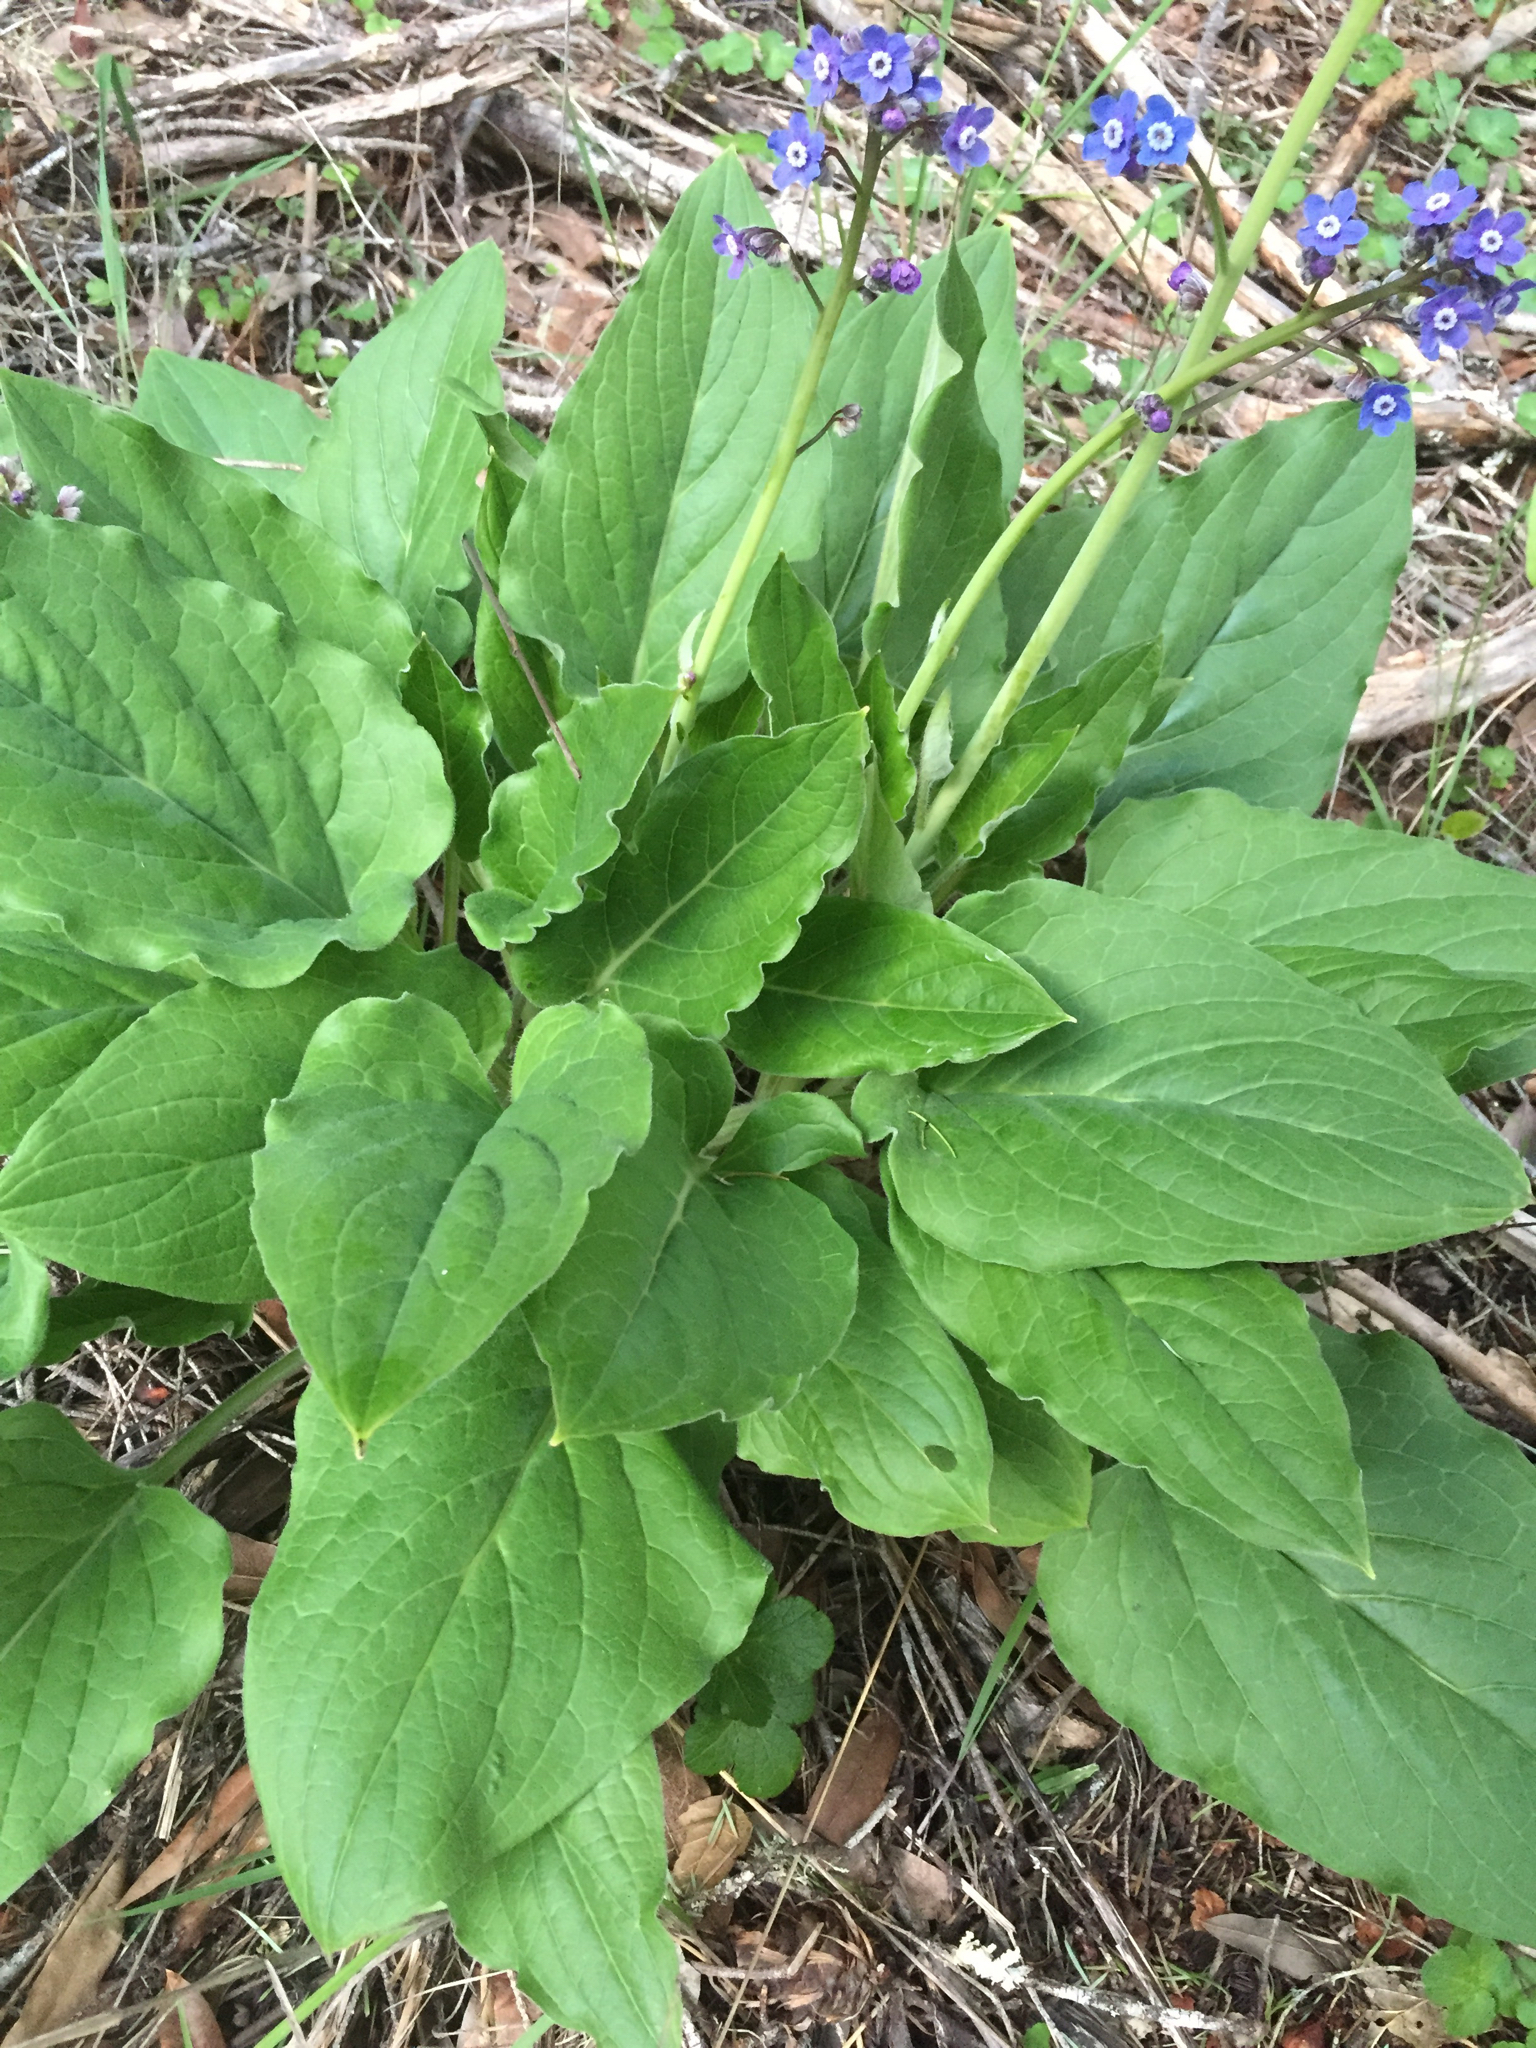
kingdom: Plantae
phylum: Tracheophyta
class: Magnoliopsida
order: Boraginales
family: Boraginaceae
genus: Adelinia
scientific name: Adelinia grande
